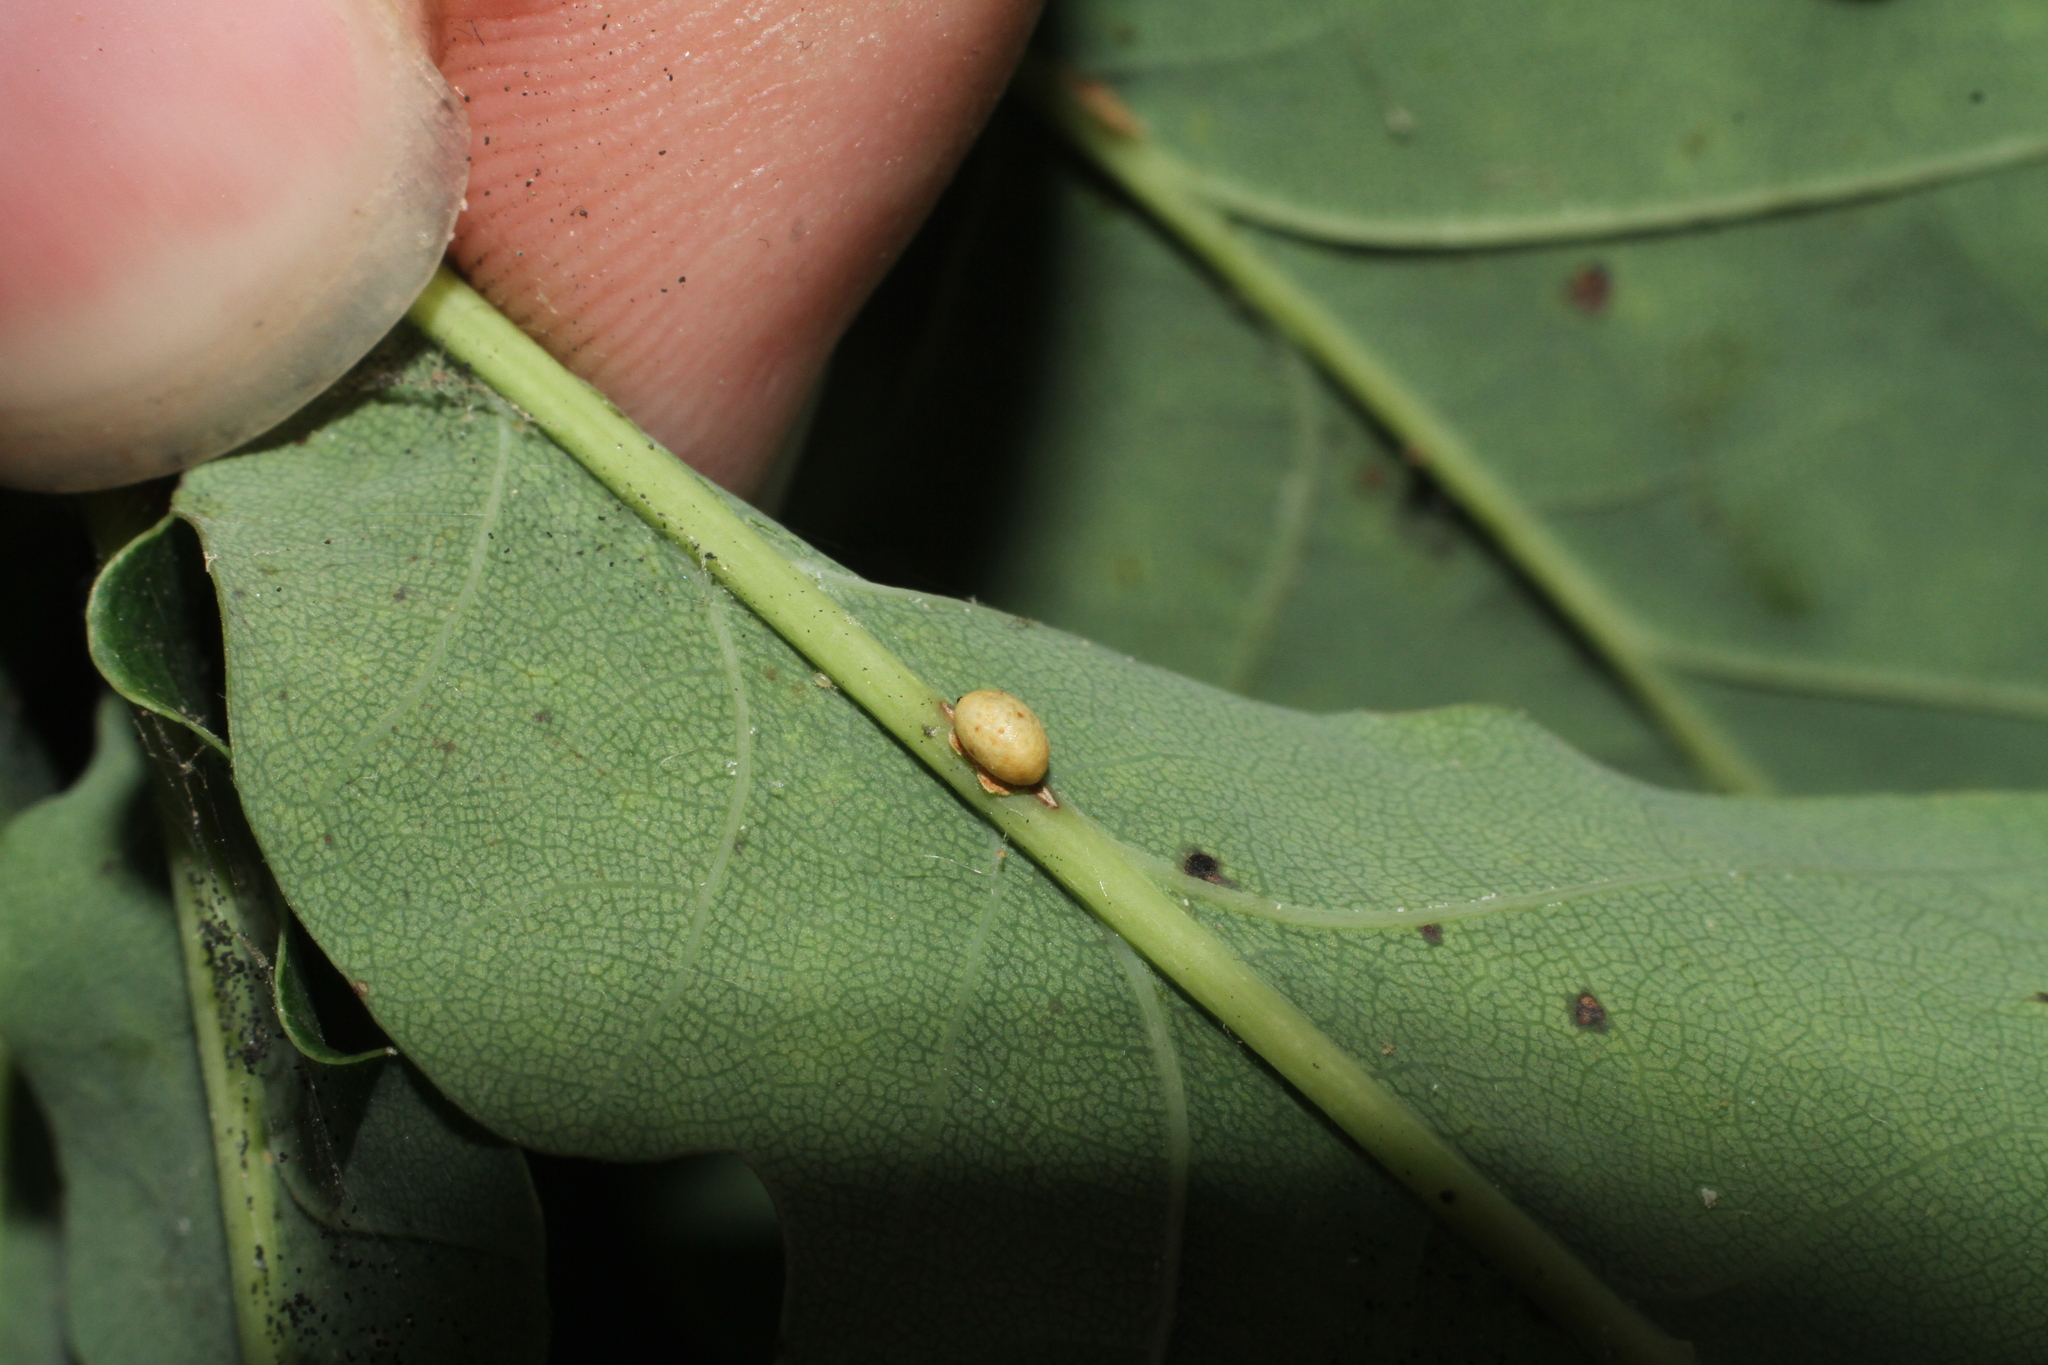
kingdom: Animalia
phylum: Arthropoda
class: Insecta
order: Hymenoptera
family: Cynipidae
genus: Neuroterus
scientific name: Neuroterus anthracinus
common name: Oyster gall
